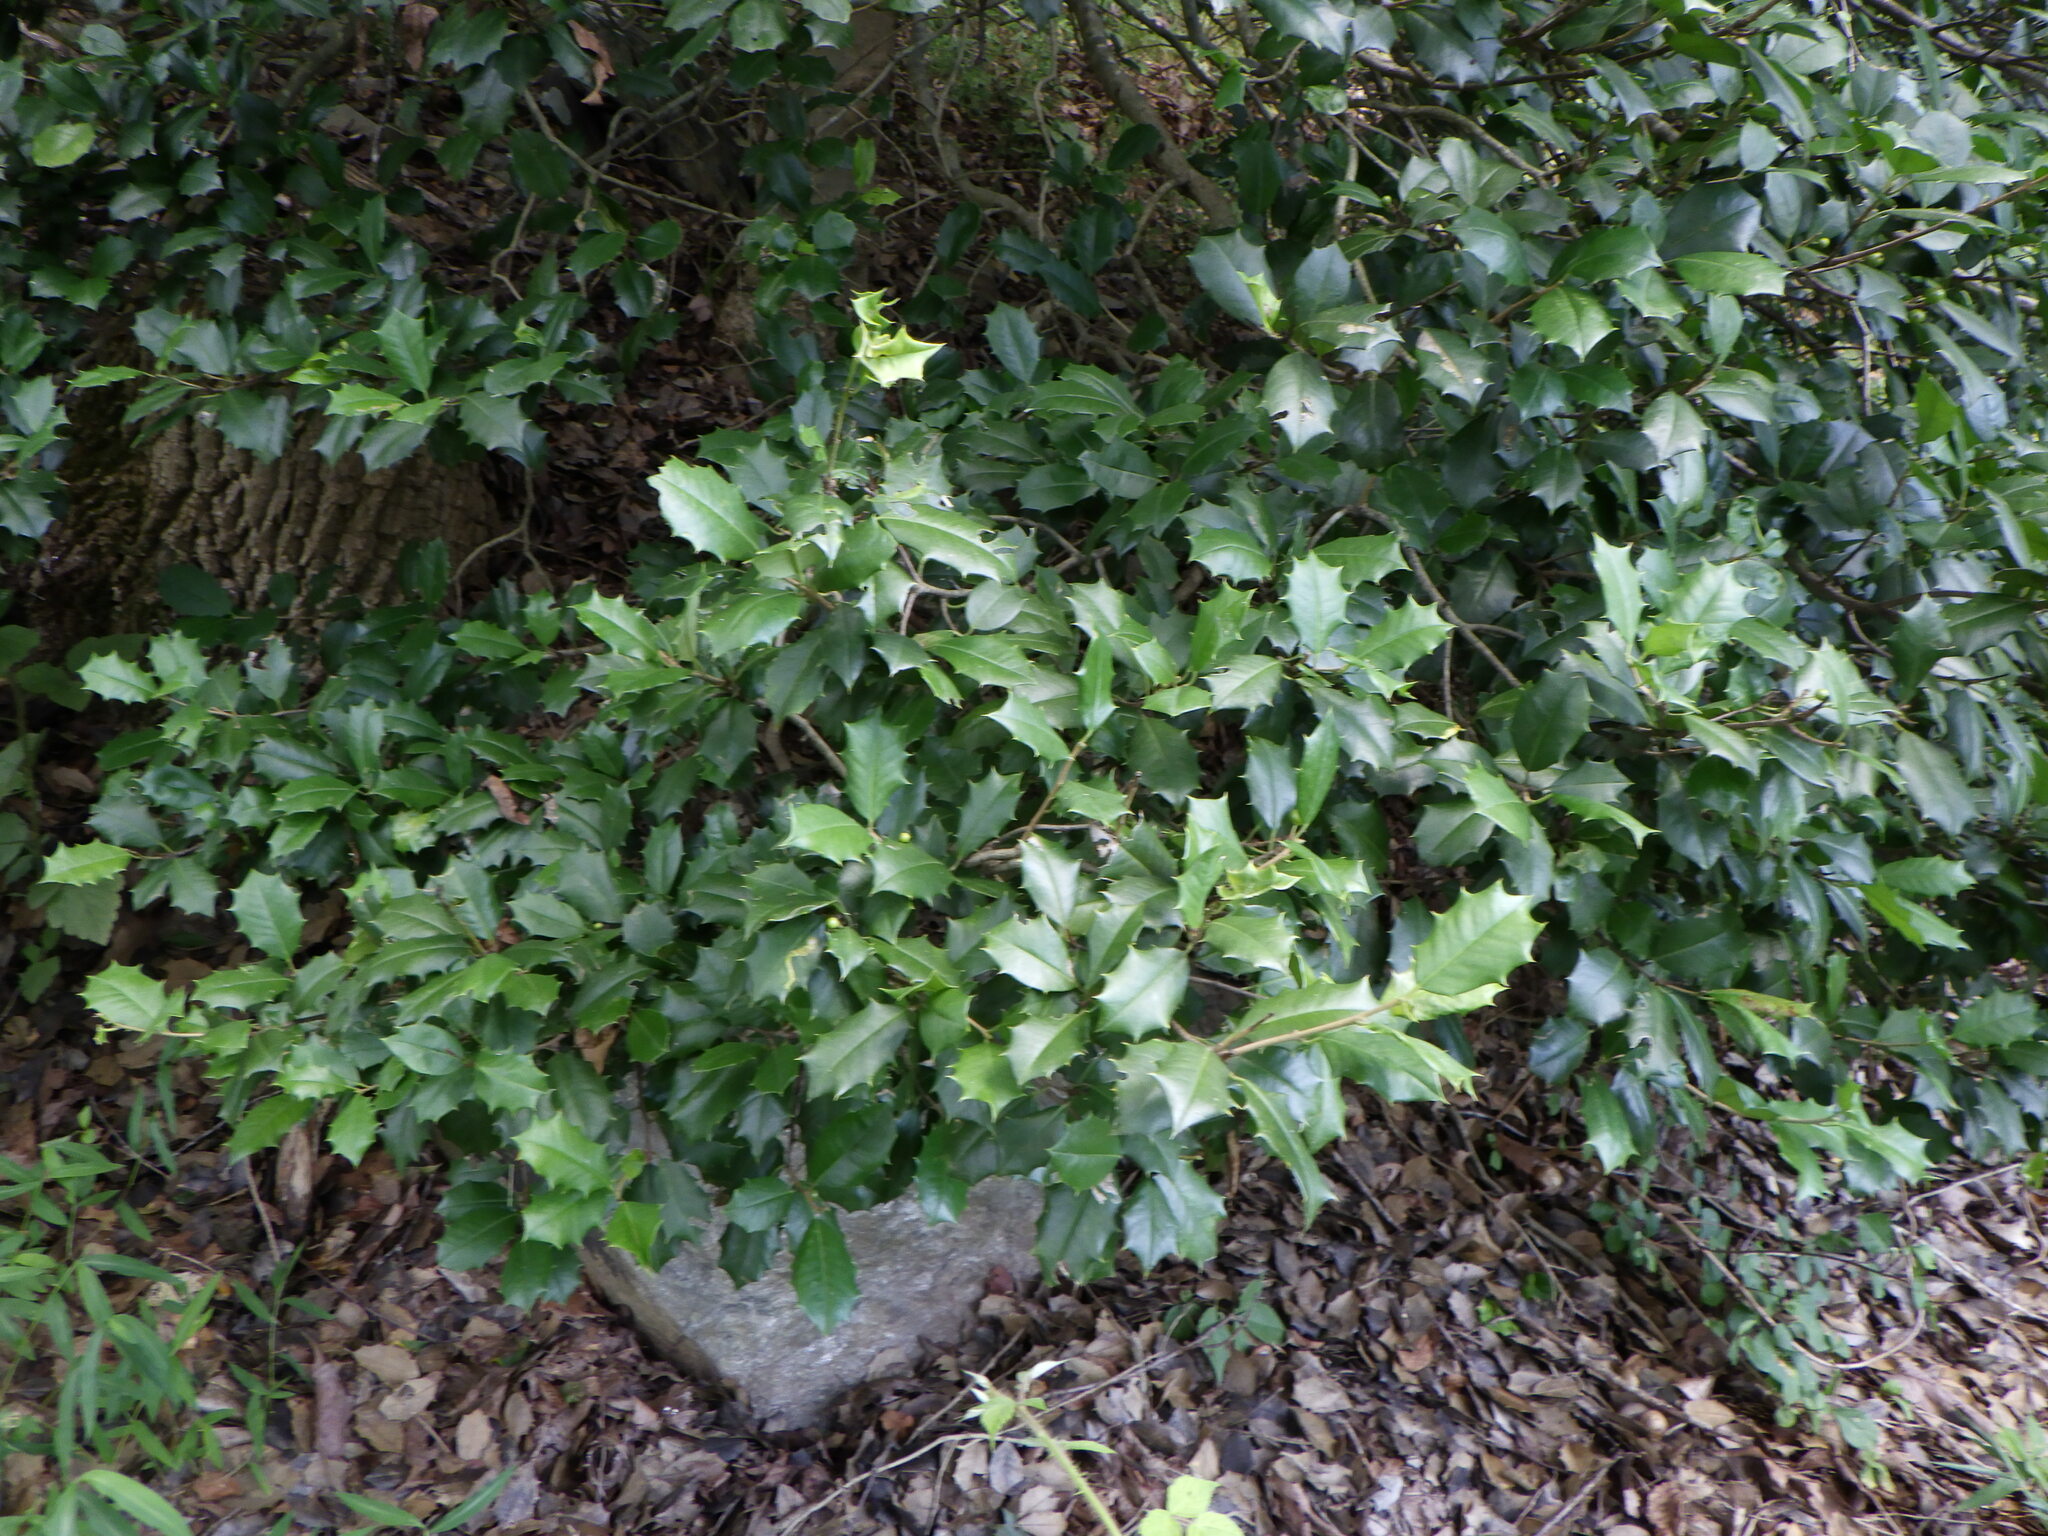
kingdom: Plantae
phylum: Tracheophyta
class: Magnoliopsida
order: Aquifoliales
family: Aquifoliaceae
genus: Ilex
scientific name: Ilex opaca
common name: American holly
